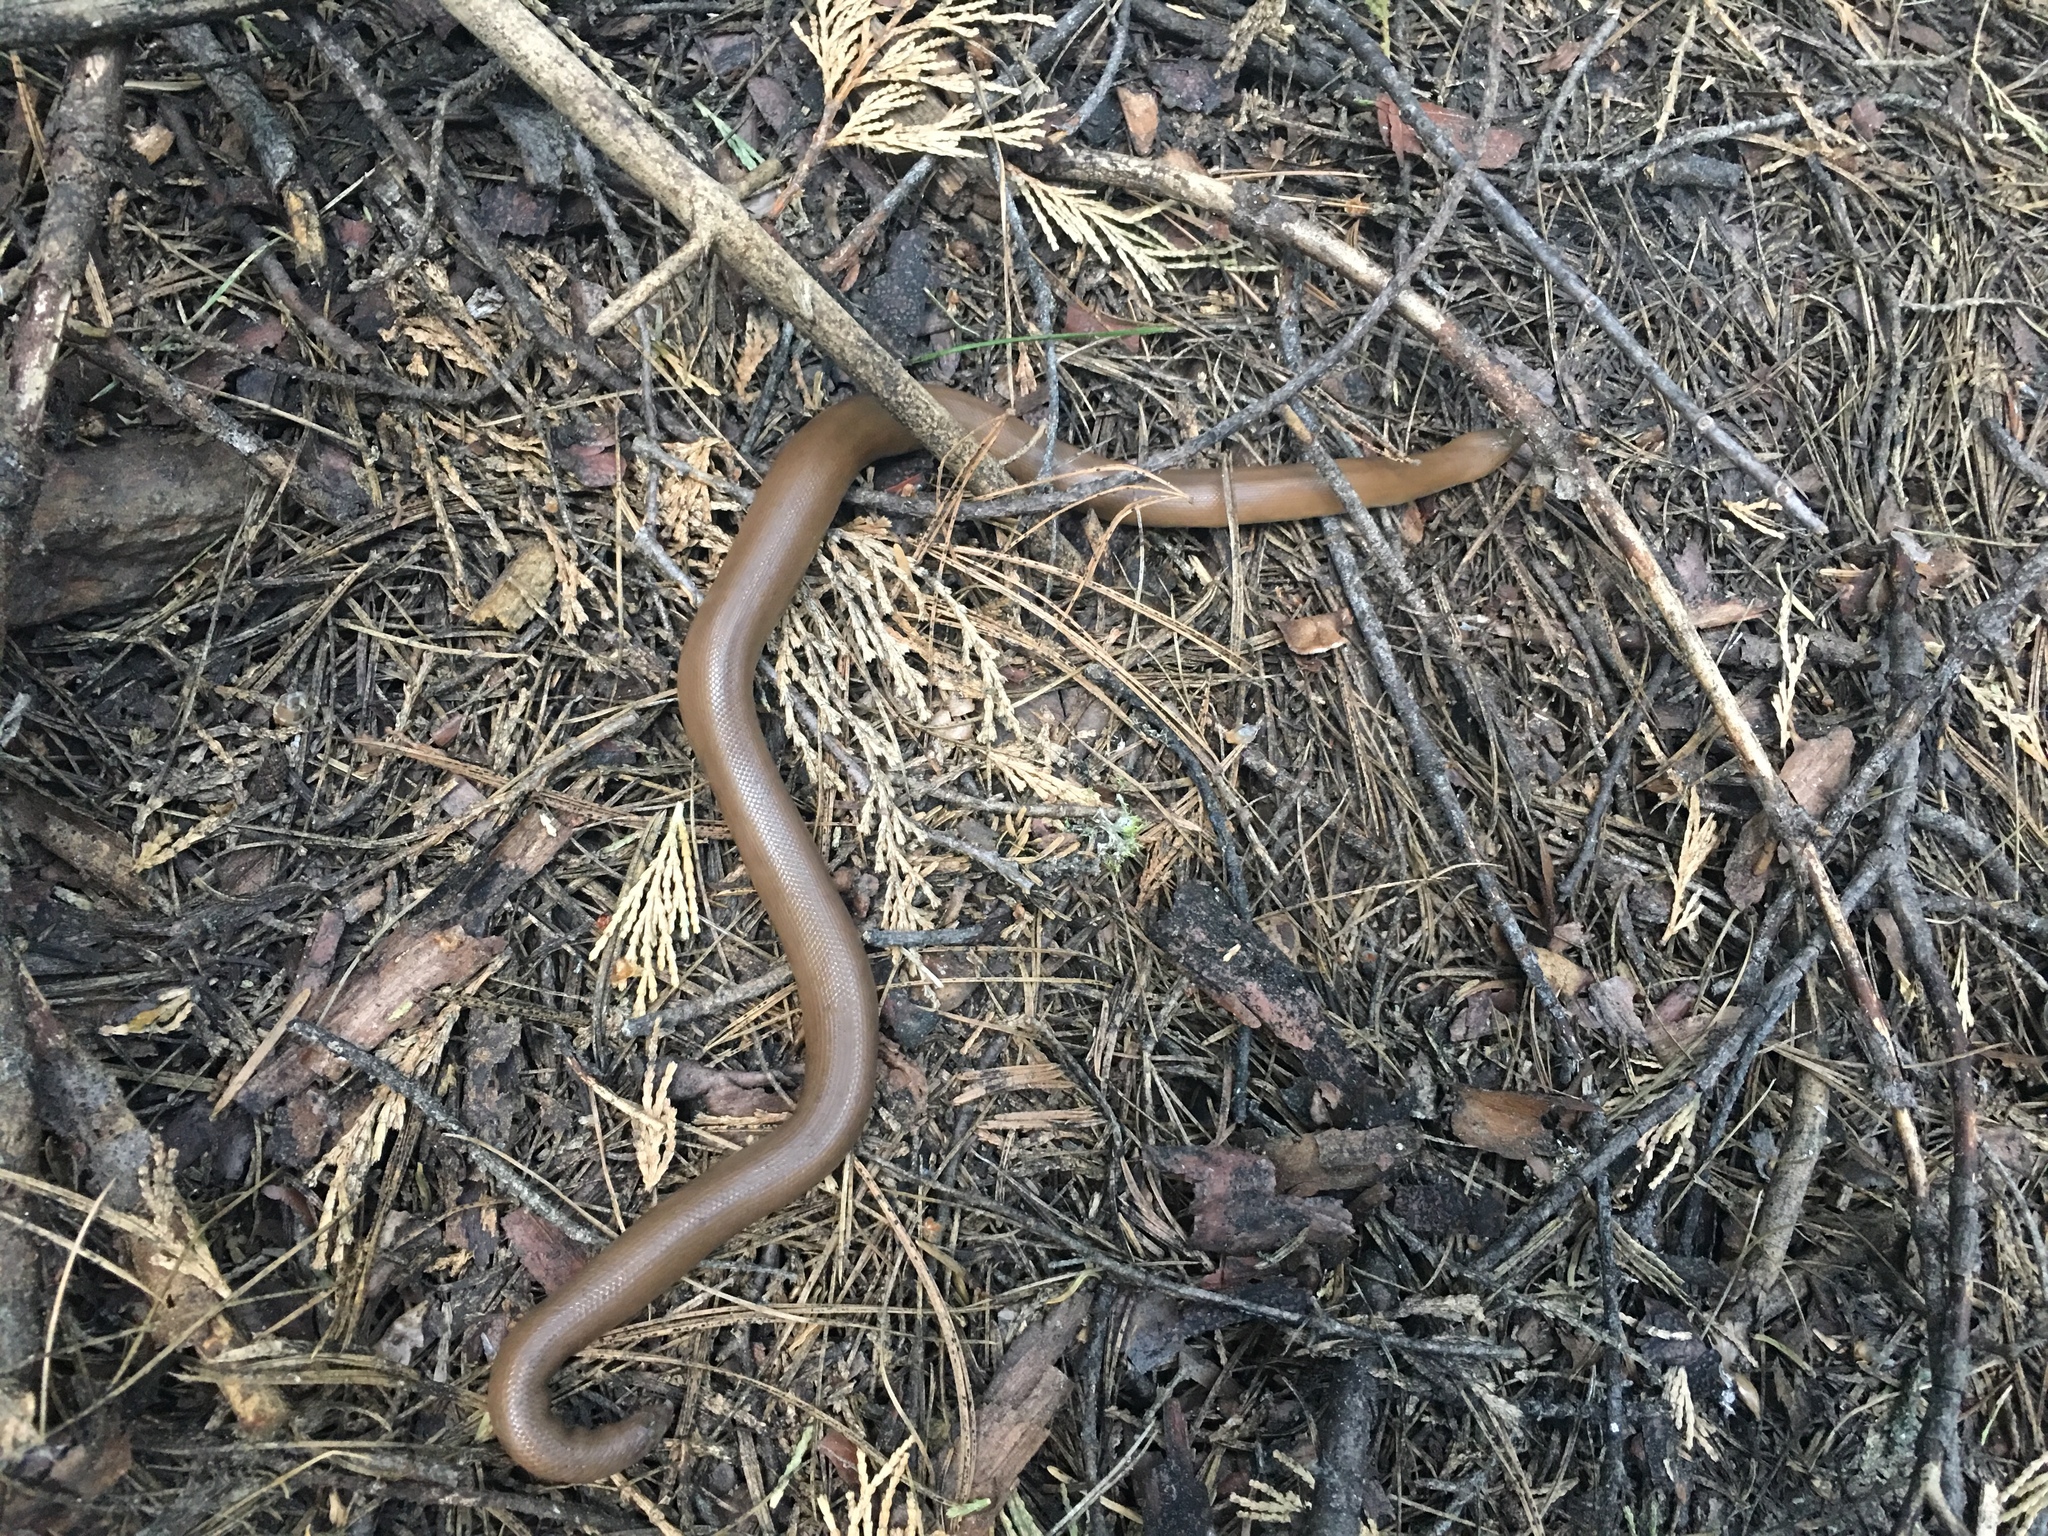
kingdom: Animalia
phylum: Chordata
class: Squamata
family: Boidae
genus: Charina
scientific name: Charina bottae
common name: Northern rubber boa
